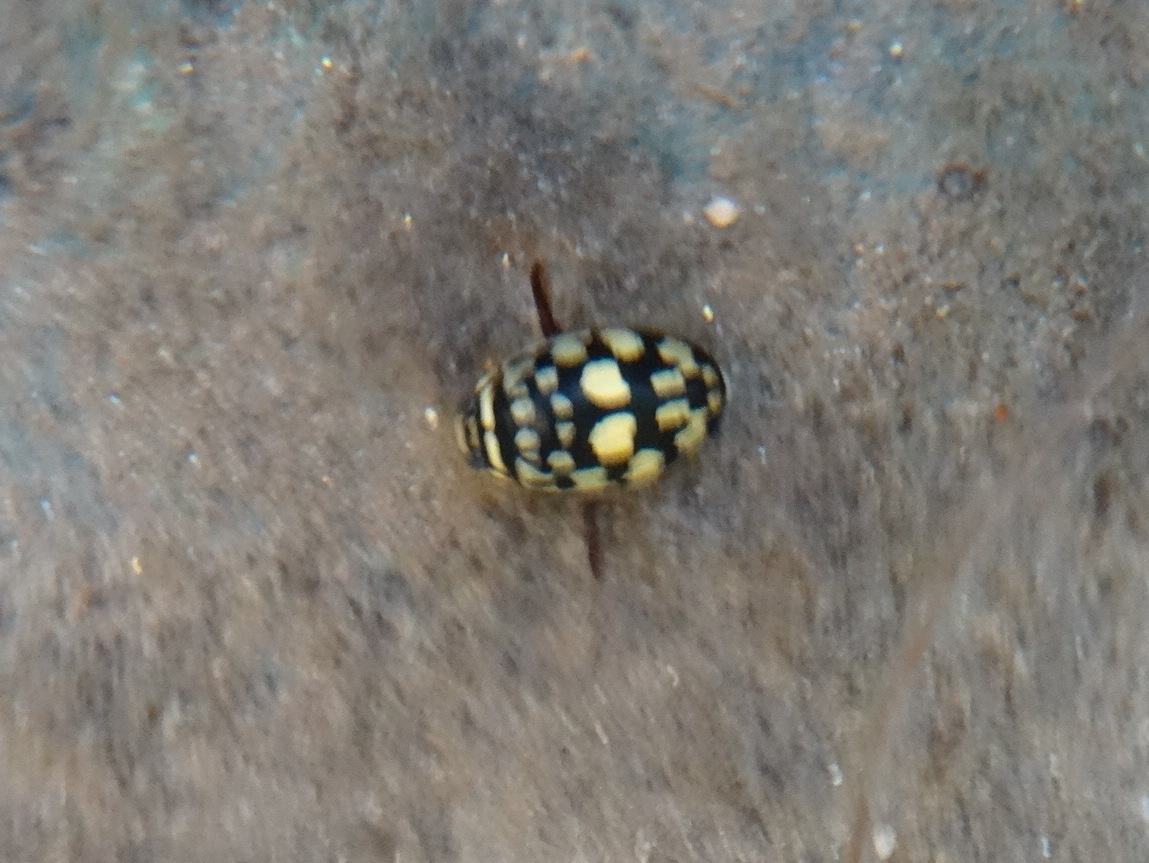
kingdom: Animalia
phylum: Arthropoda
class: Insecta
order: Coleoptera
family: Dytiscidae
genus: Thermonectus
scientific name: Thermonectus marmoratus
